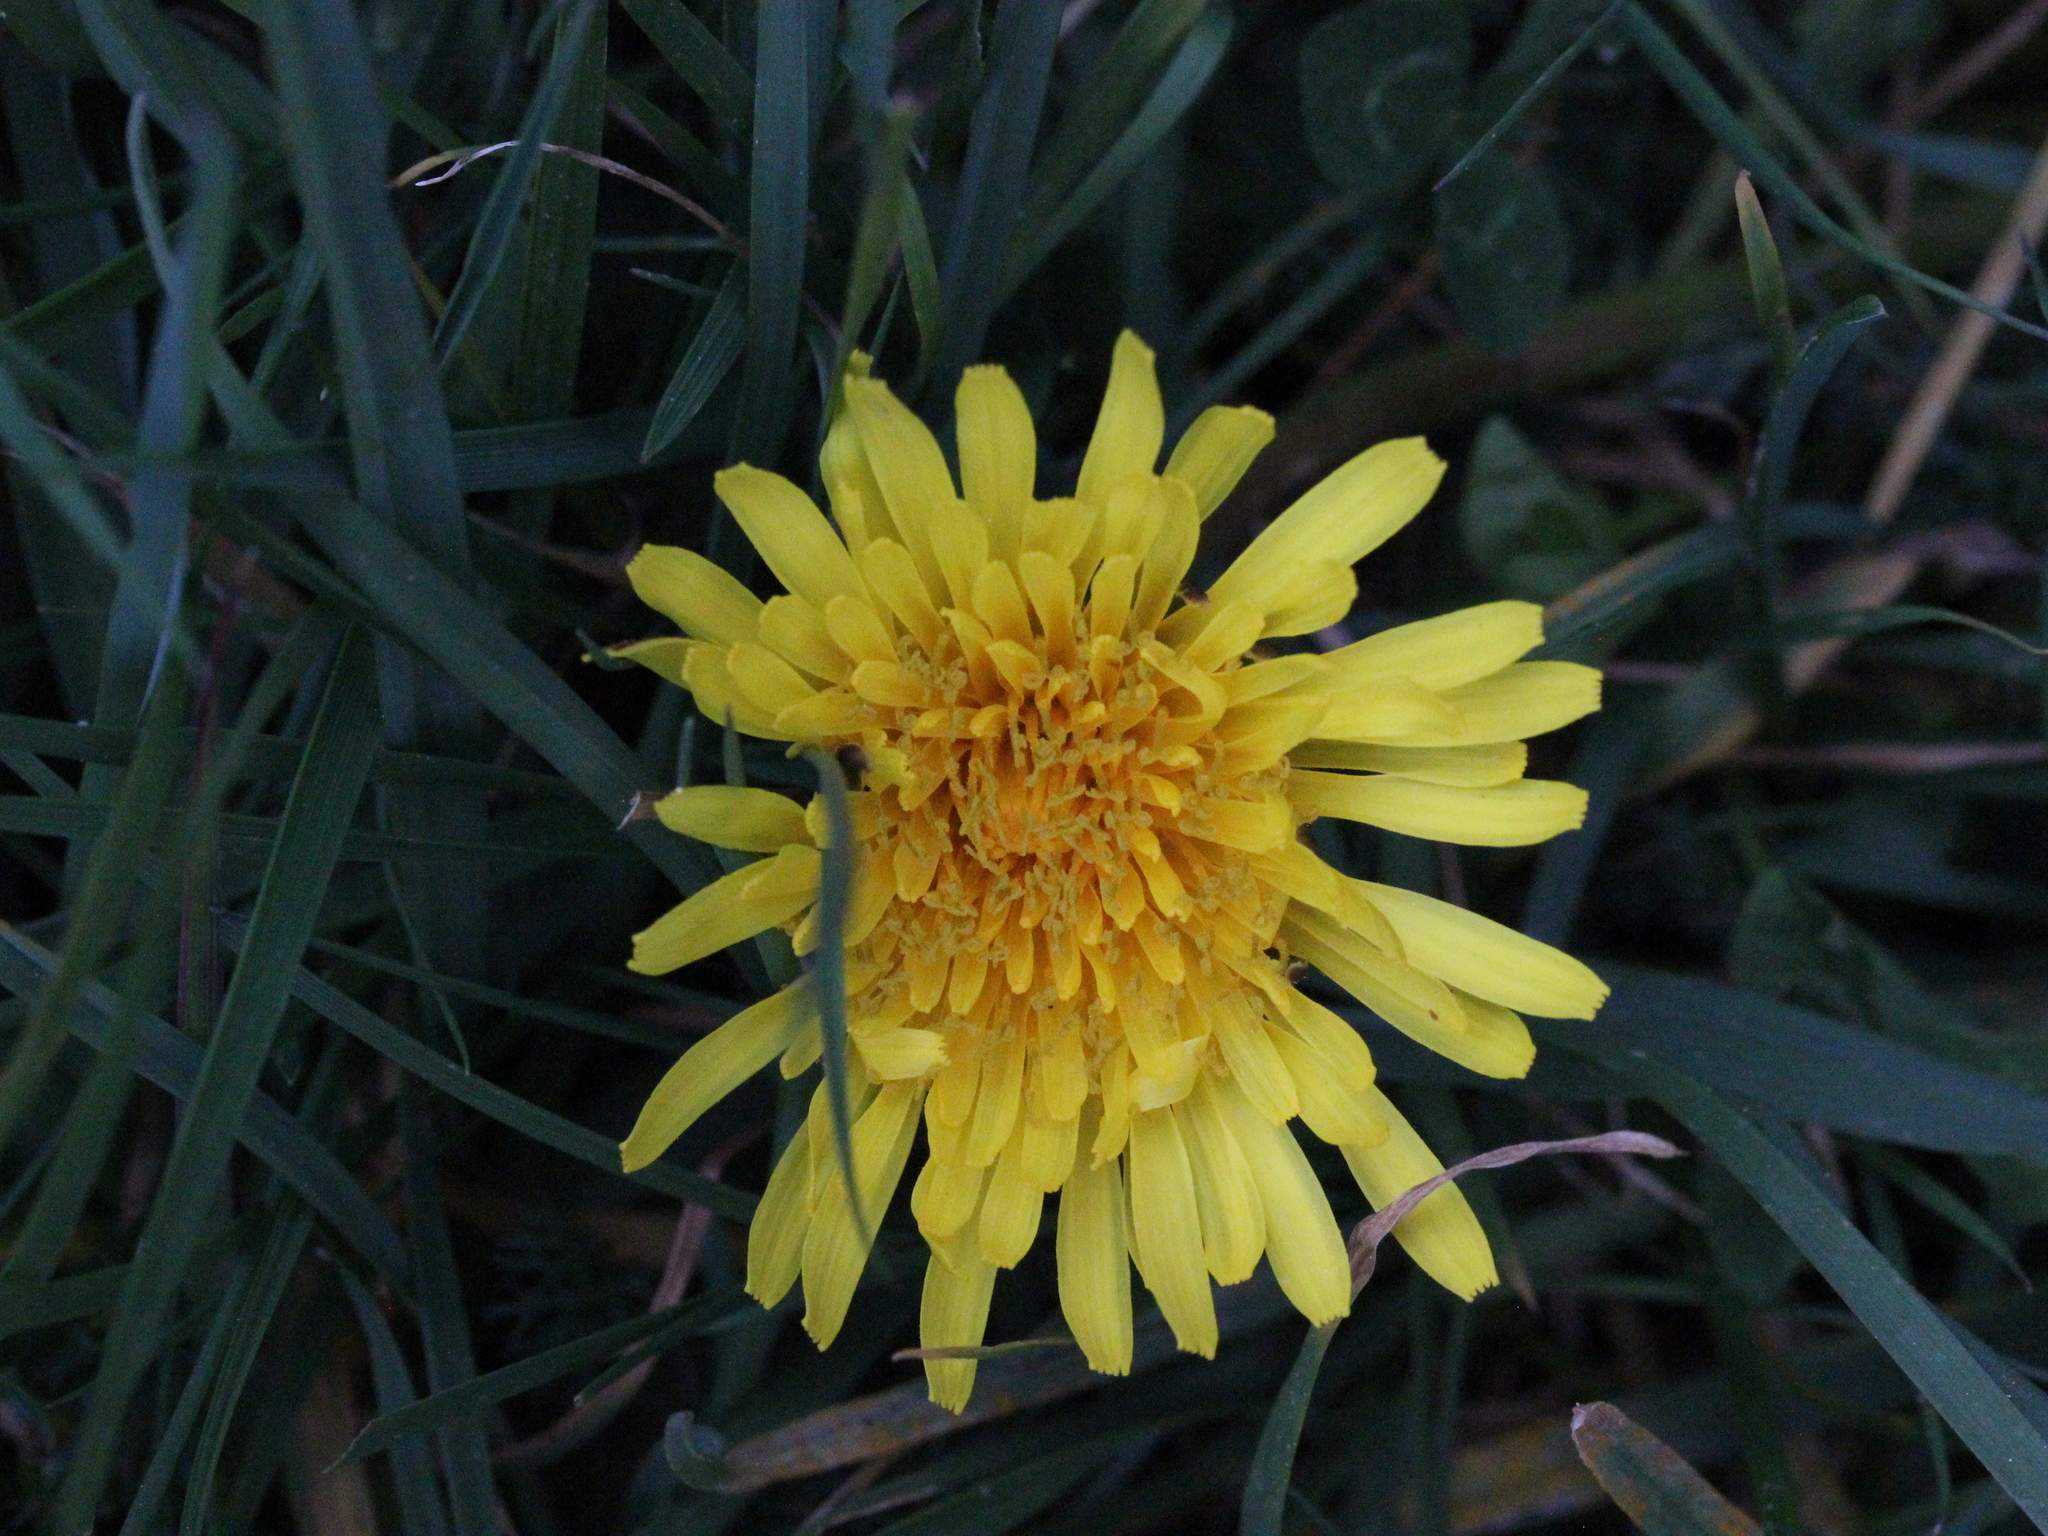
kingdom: Plantae
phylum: Tracheophyta
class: Magnoliopsida
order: Asterales
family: Asteraceae
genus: Taraxacum
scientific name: Taraxacum officinale
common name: Common dandelion
